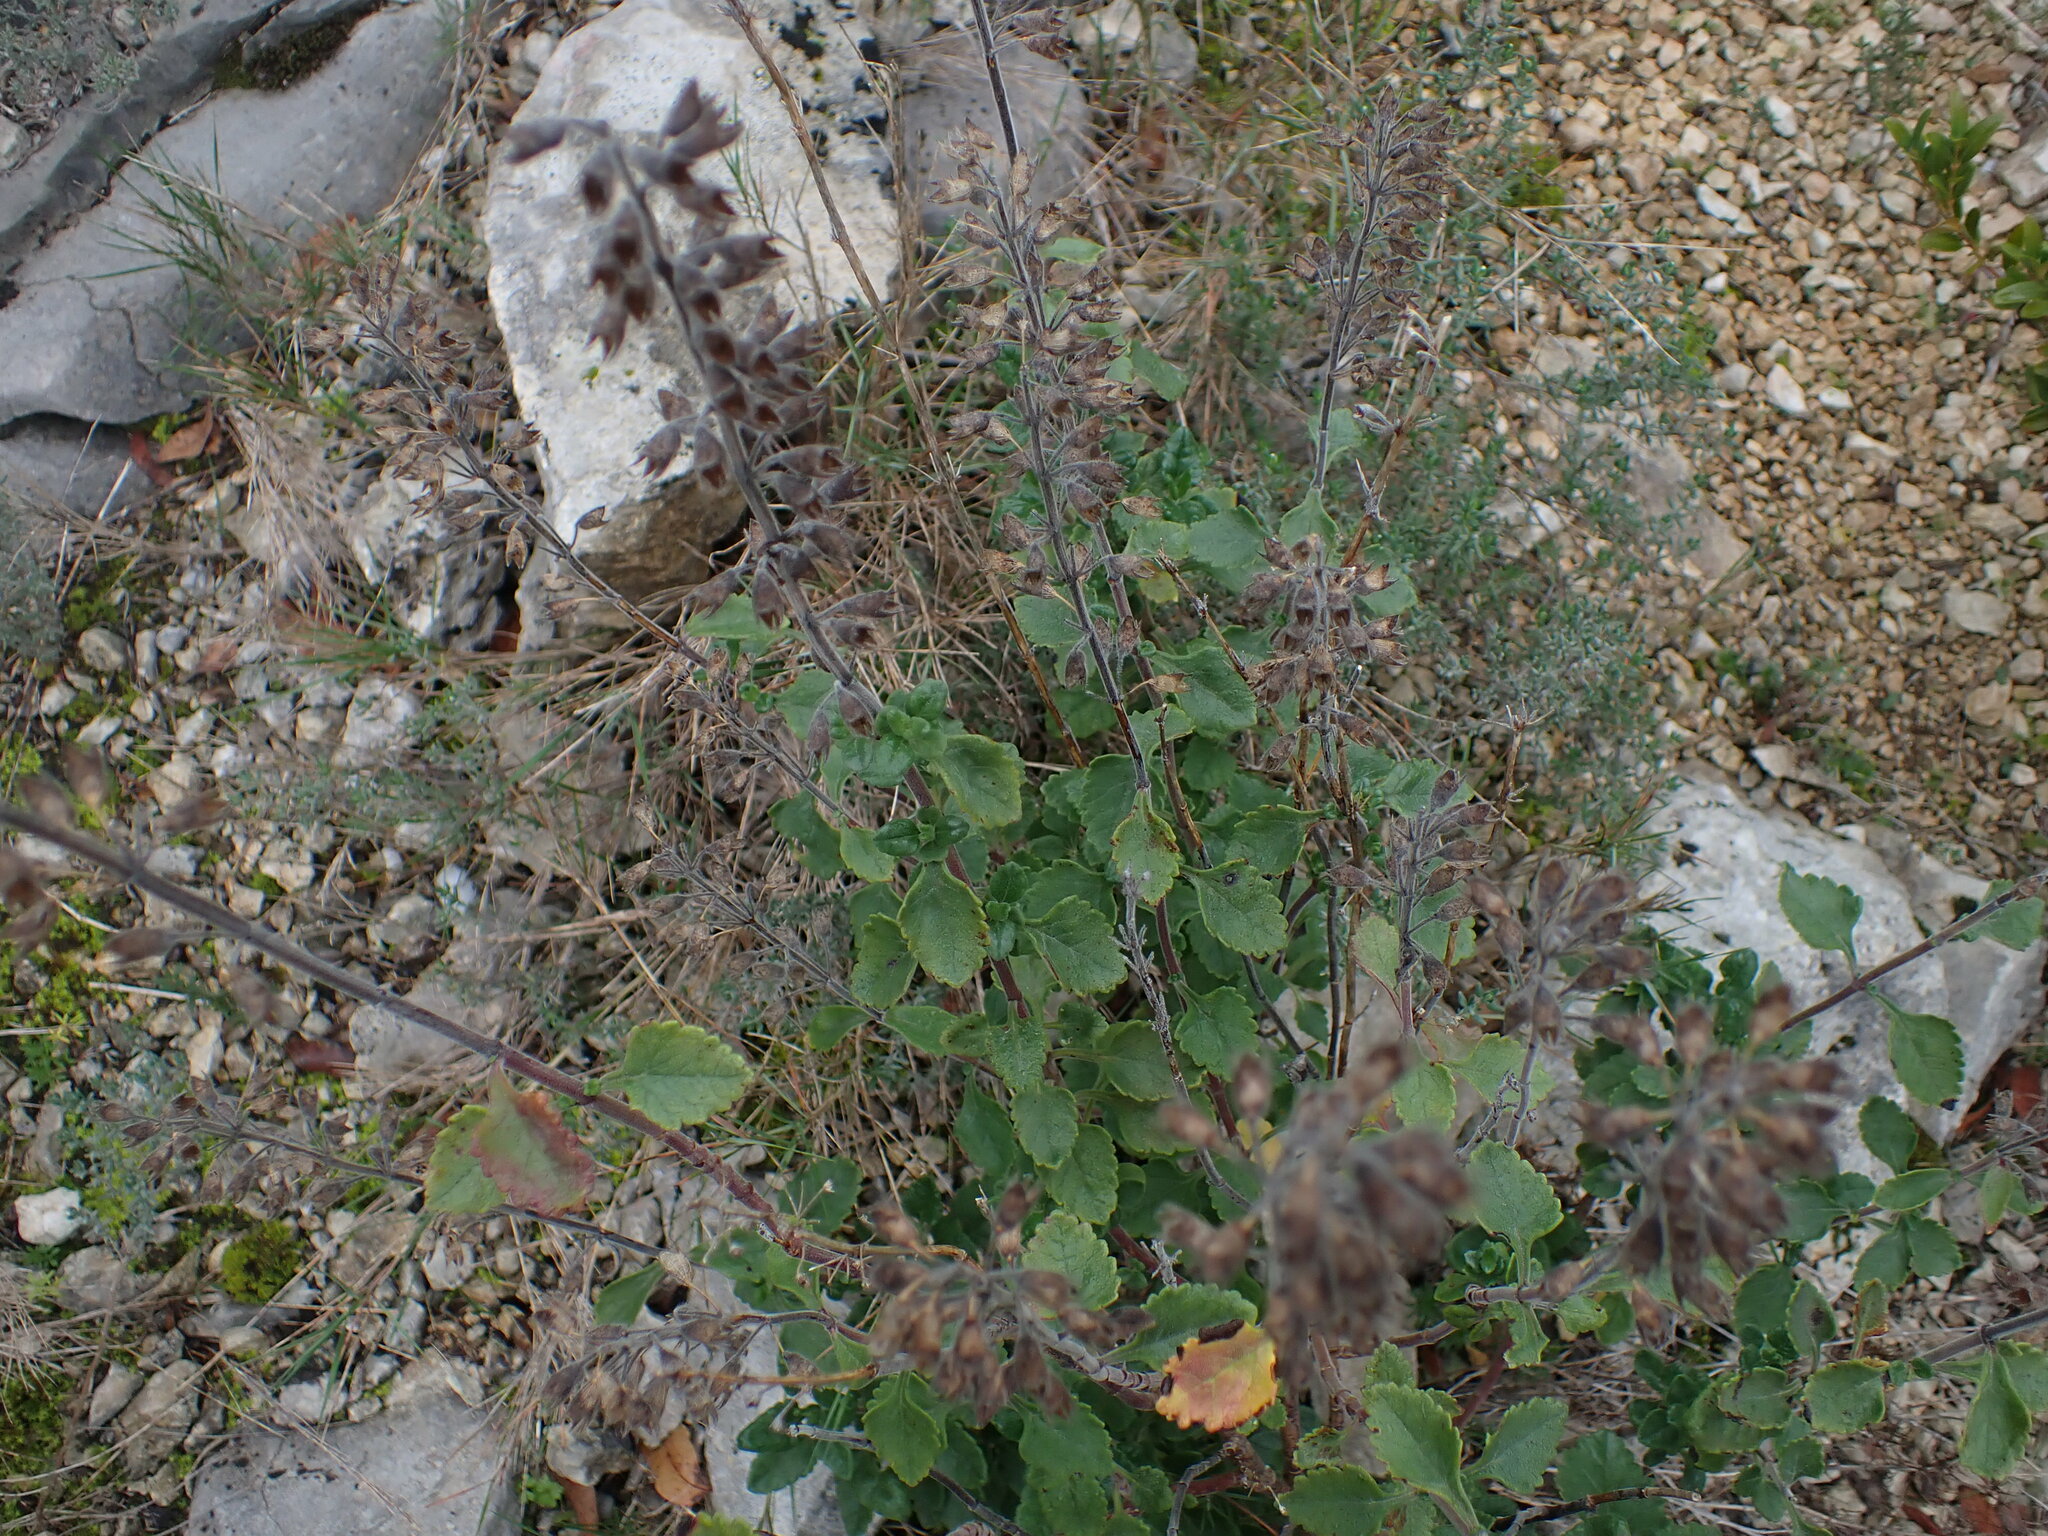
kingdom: Plantae
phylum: Tracheophyta
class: Magnoliopsida
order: Lamiales
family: Lamiaceae
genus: Teucrium
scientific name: Teucrium flavum
